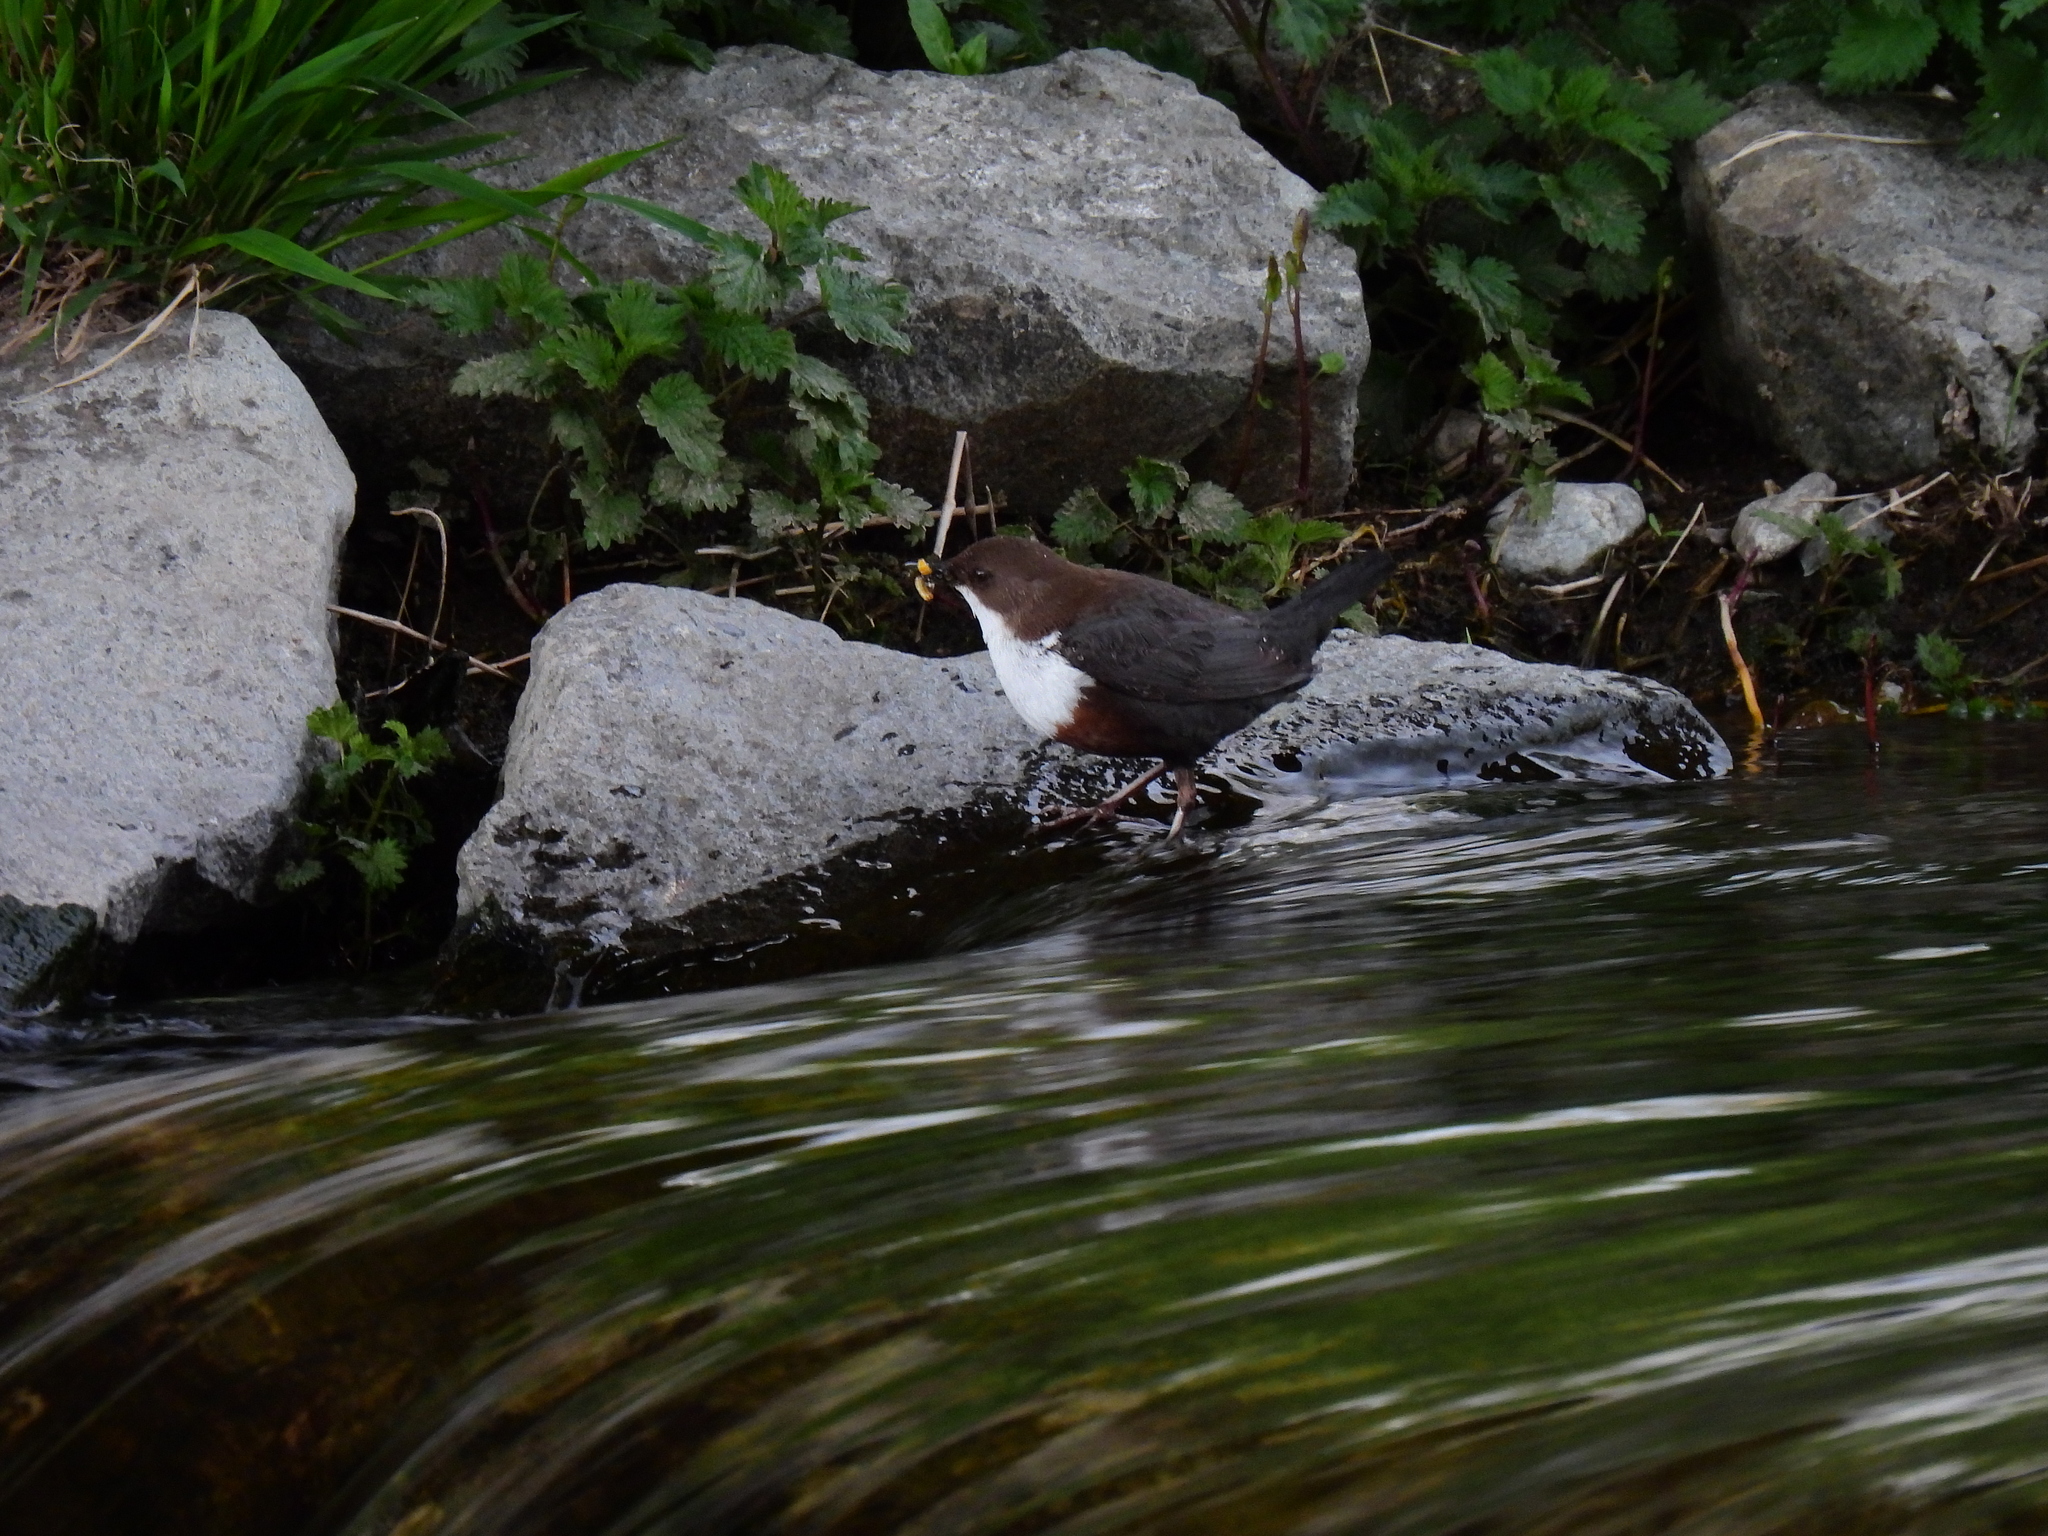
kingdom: Animalia
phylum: Chordata
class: Aves
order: Passeriformes
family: Cinclidae
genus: Cinclus
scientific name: Cinclus cinclus
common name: White-throated dipper
